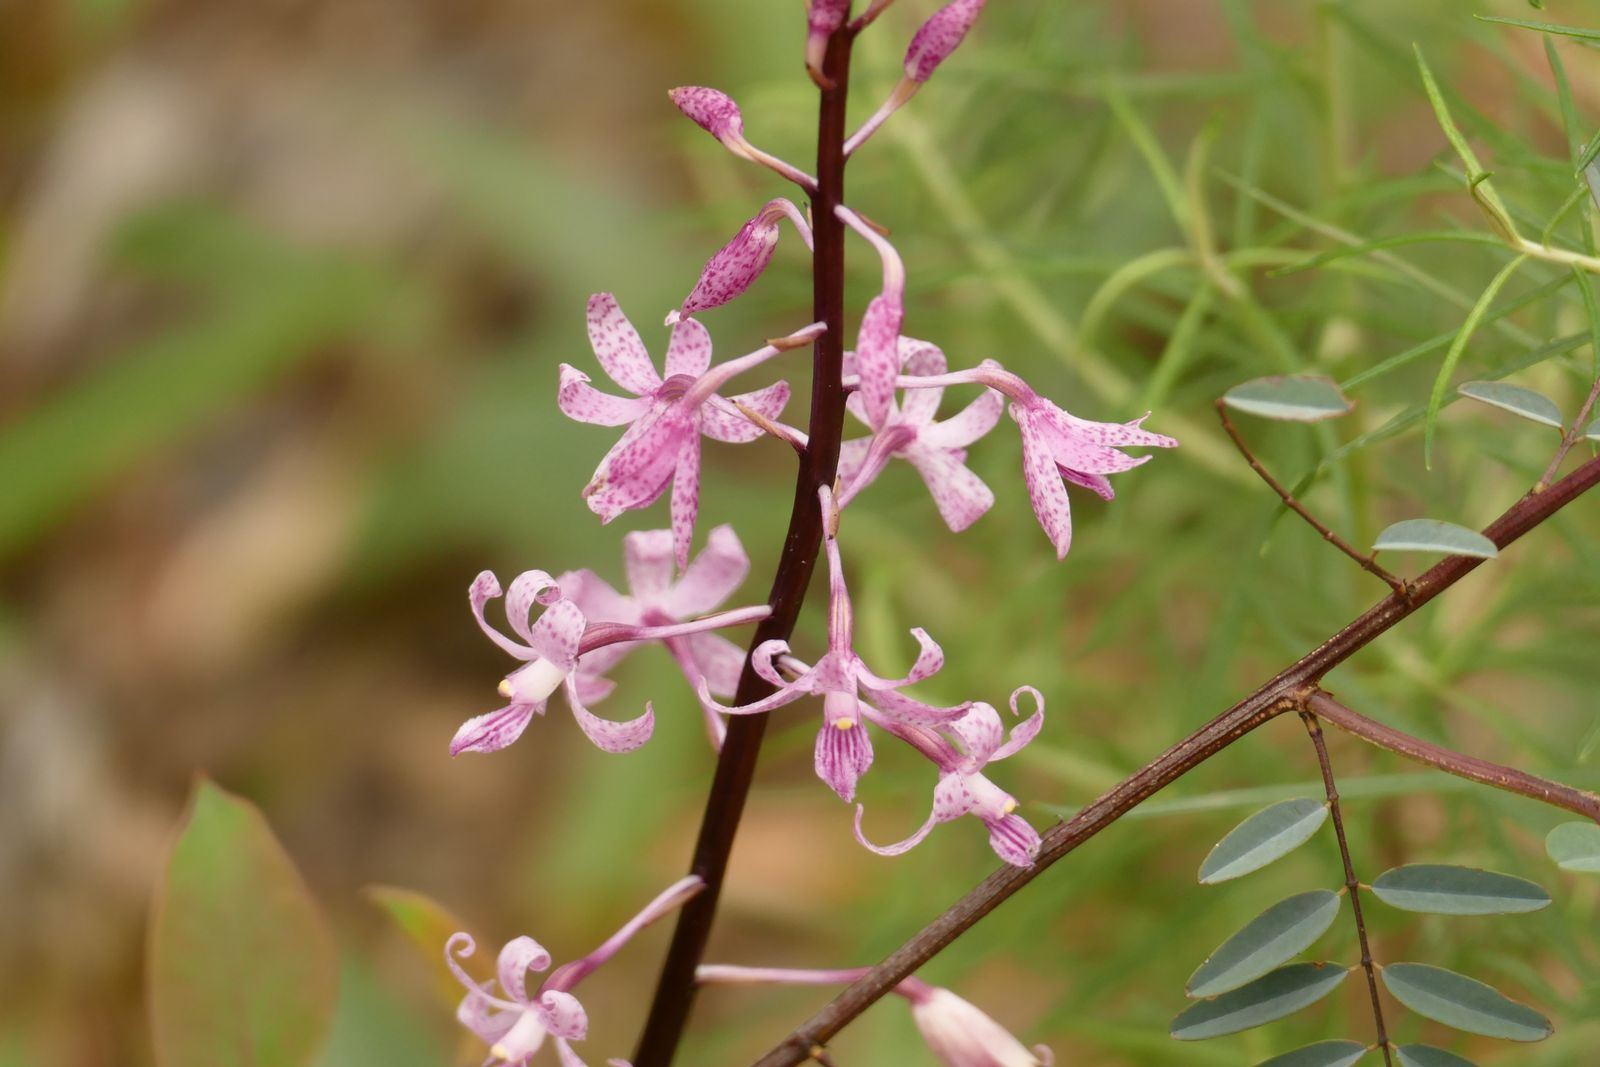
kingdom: Plantae
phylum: Tracheophyta
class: Liliopsida
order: Asparagales
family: Orchidaceae
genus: Dipodium
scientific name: Dipodium roseum
